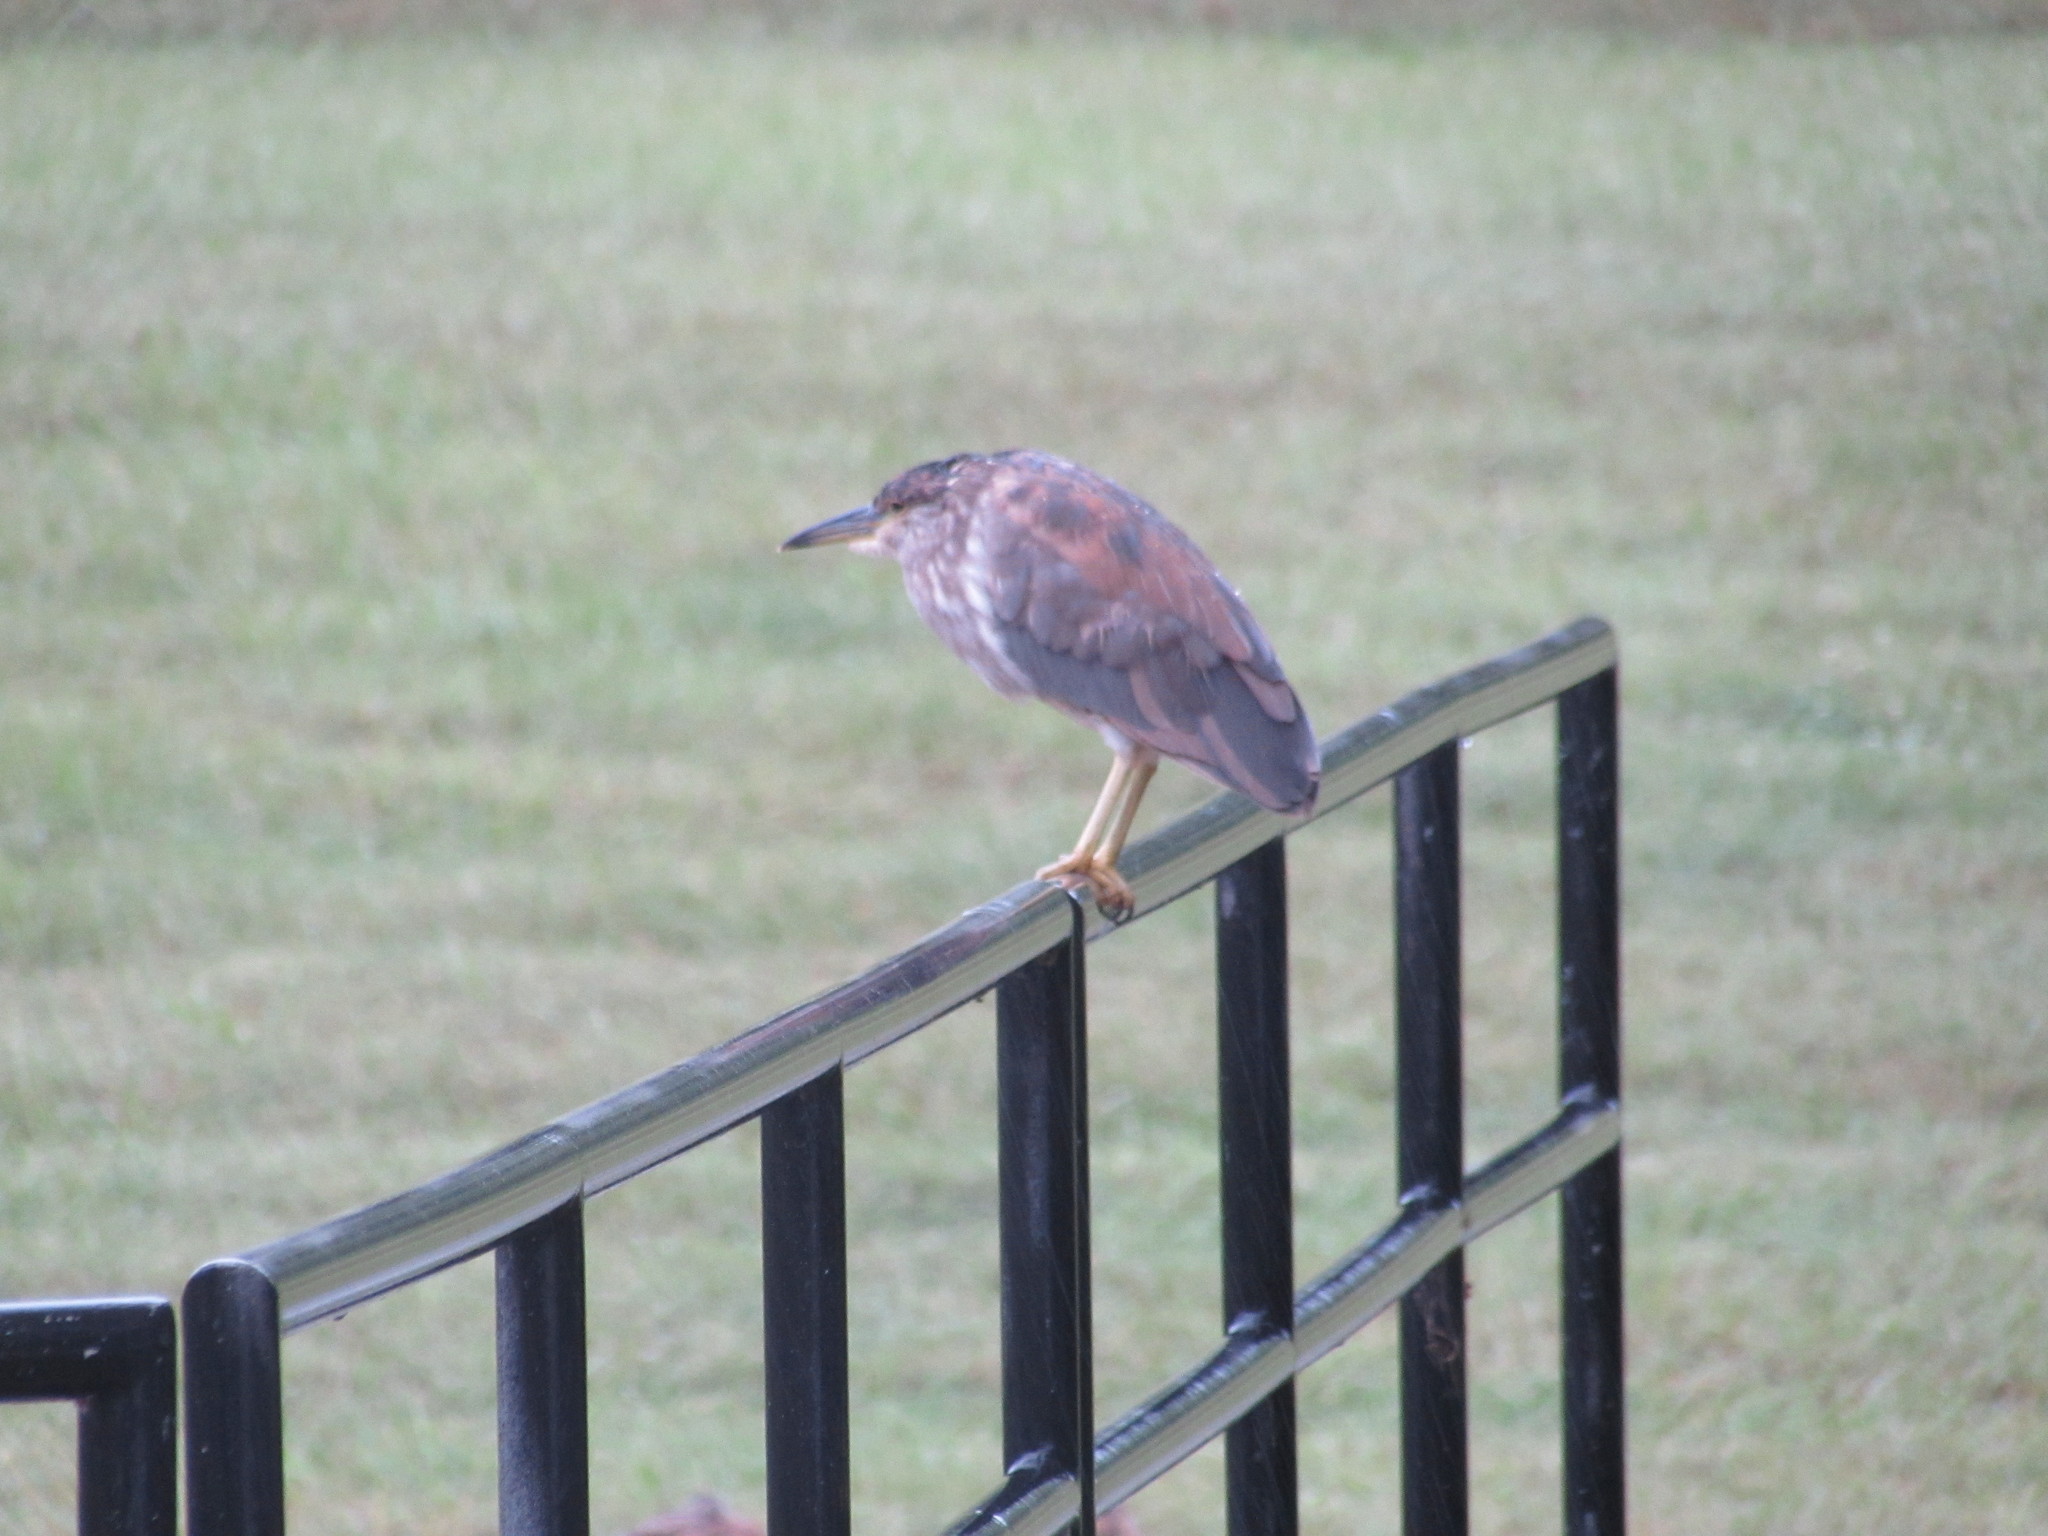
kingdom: Animalia
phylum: Chordata
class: Aves
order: Pelecaniformes
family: Ardeidae
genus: Nycticorax
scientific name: Nycticorax nycticorax
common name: Black-crowned night heron
